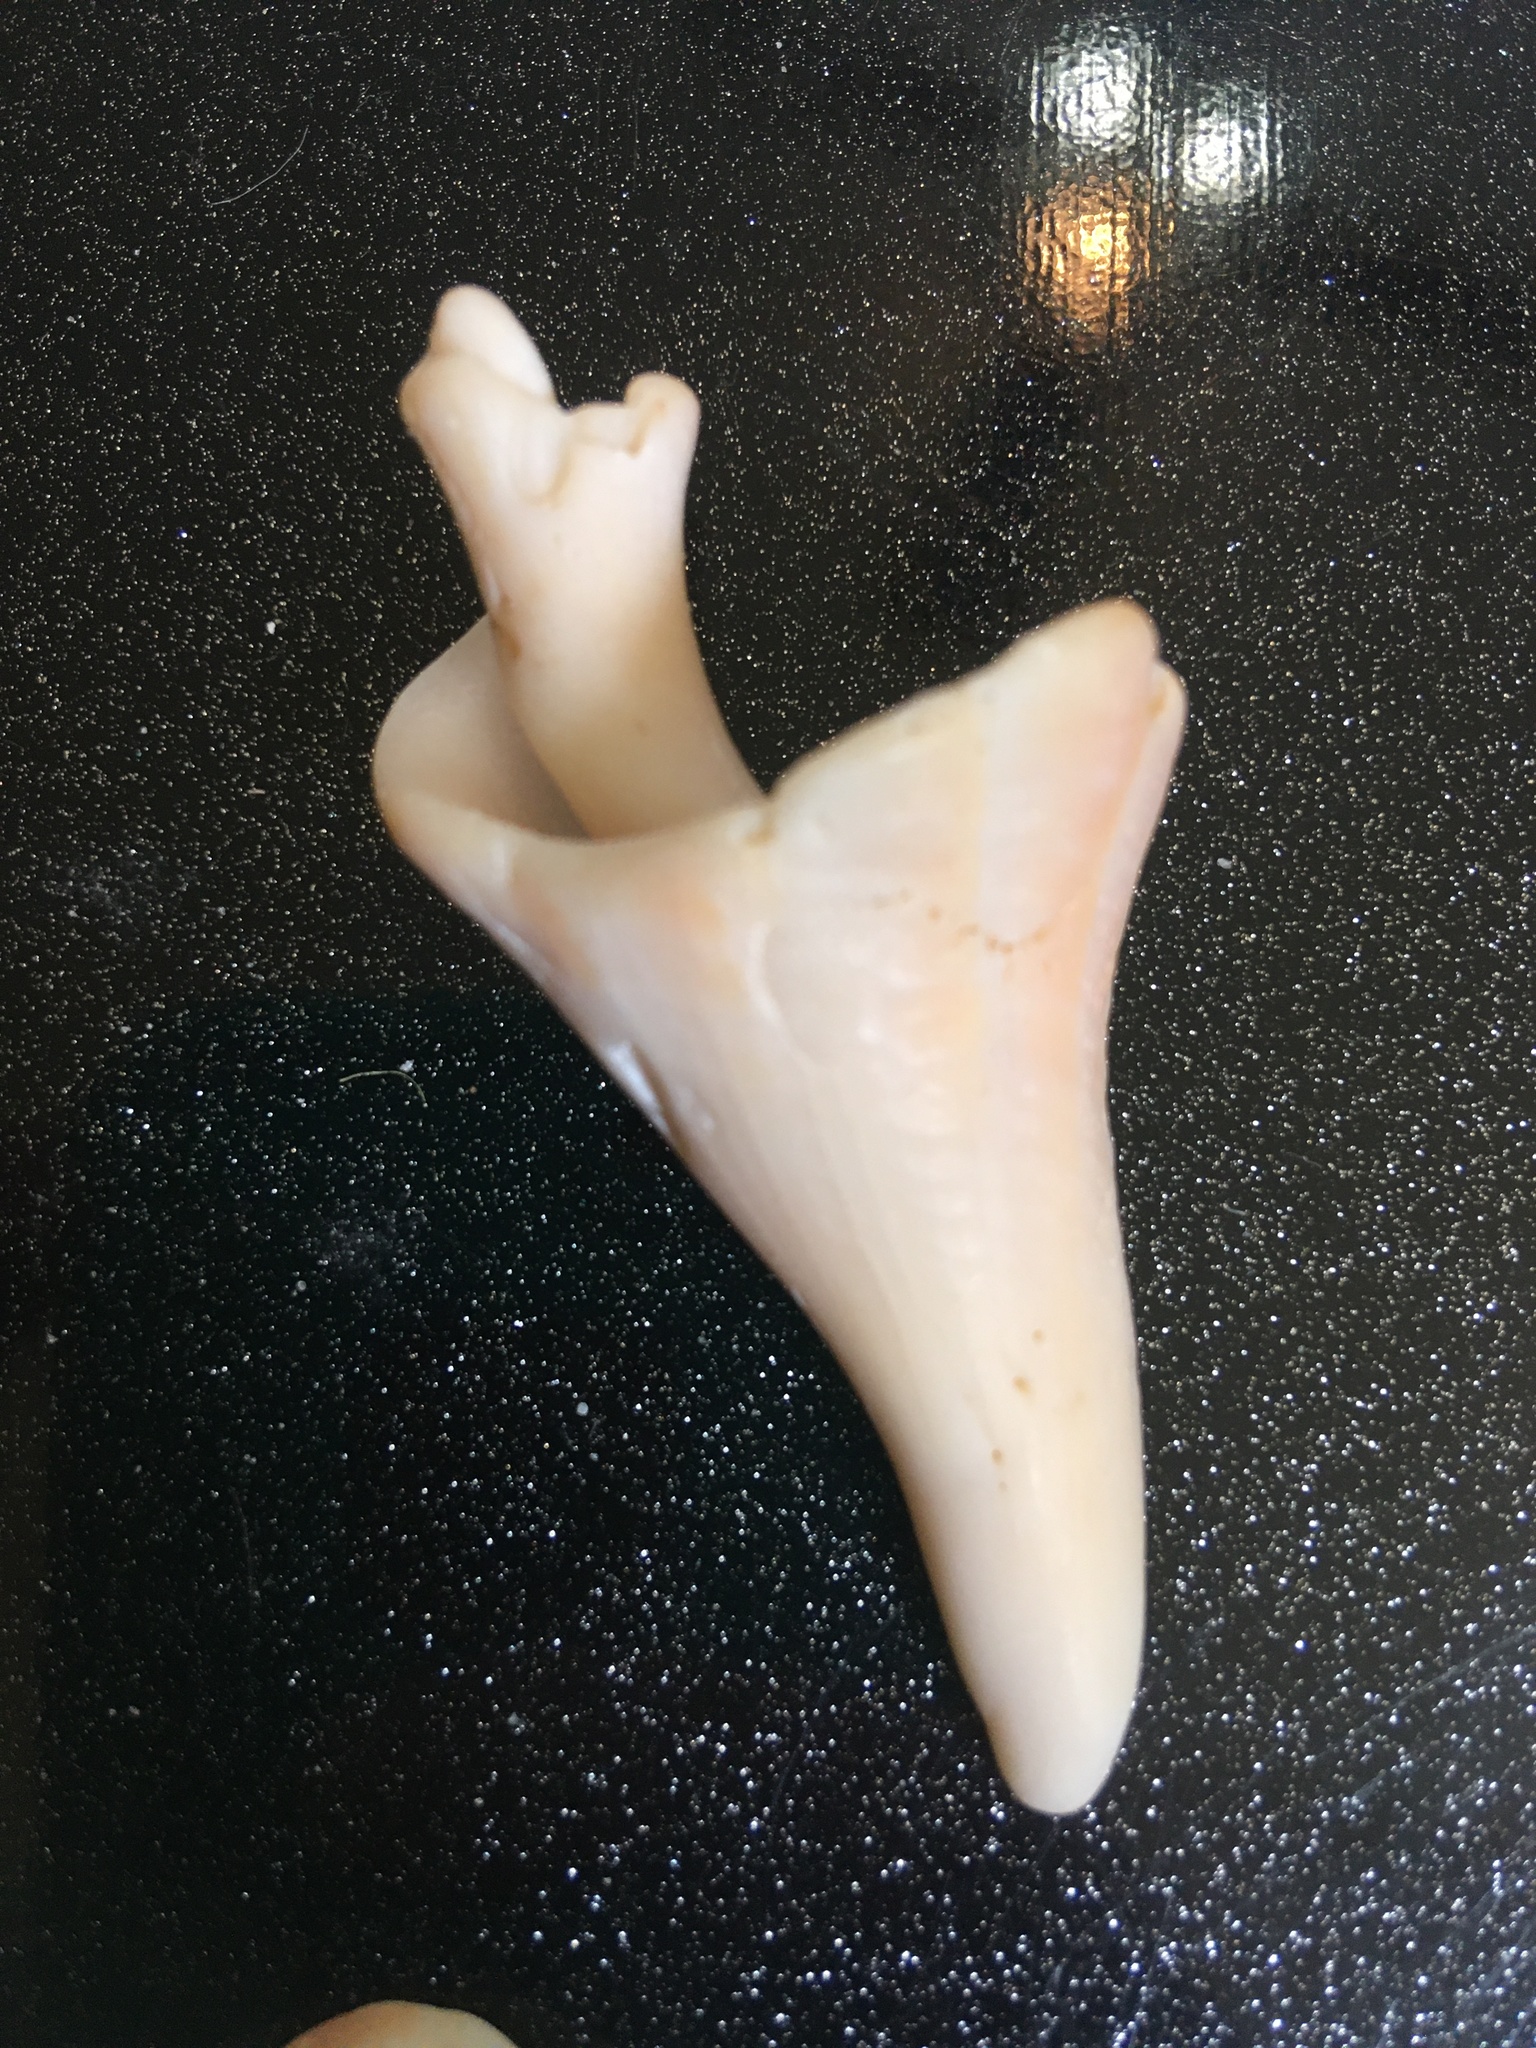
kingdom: Animalia
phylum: Mollusca
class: Gastropoda
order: Neogastropoda
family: Busyconidae
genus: Sinistrofulgur
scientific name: Sinistrofulgur sinistrum
